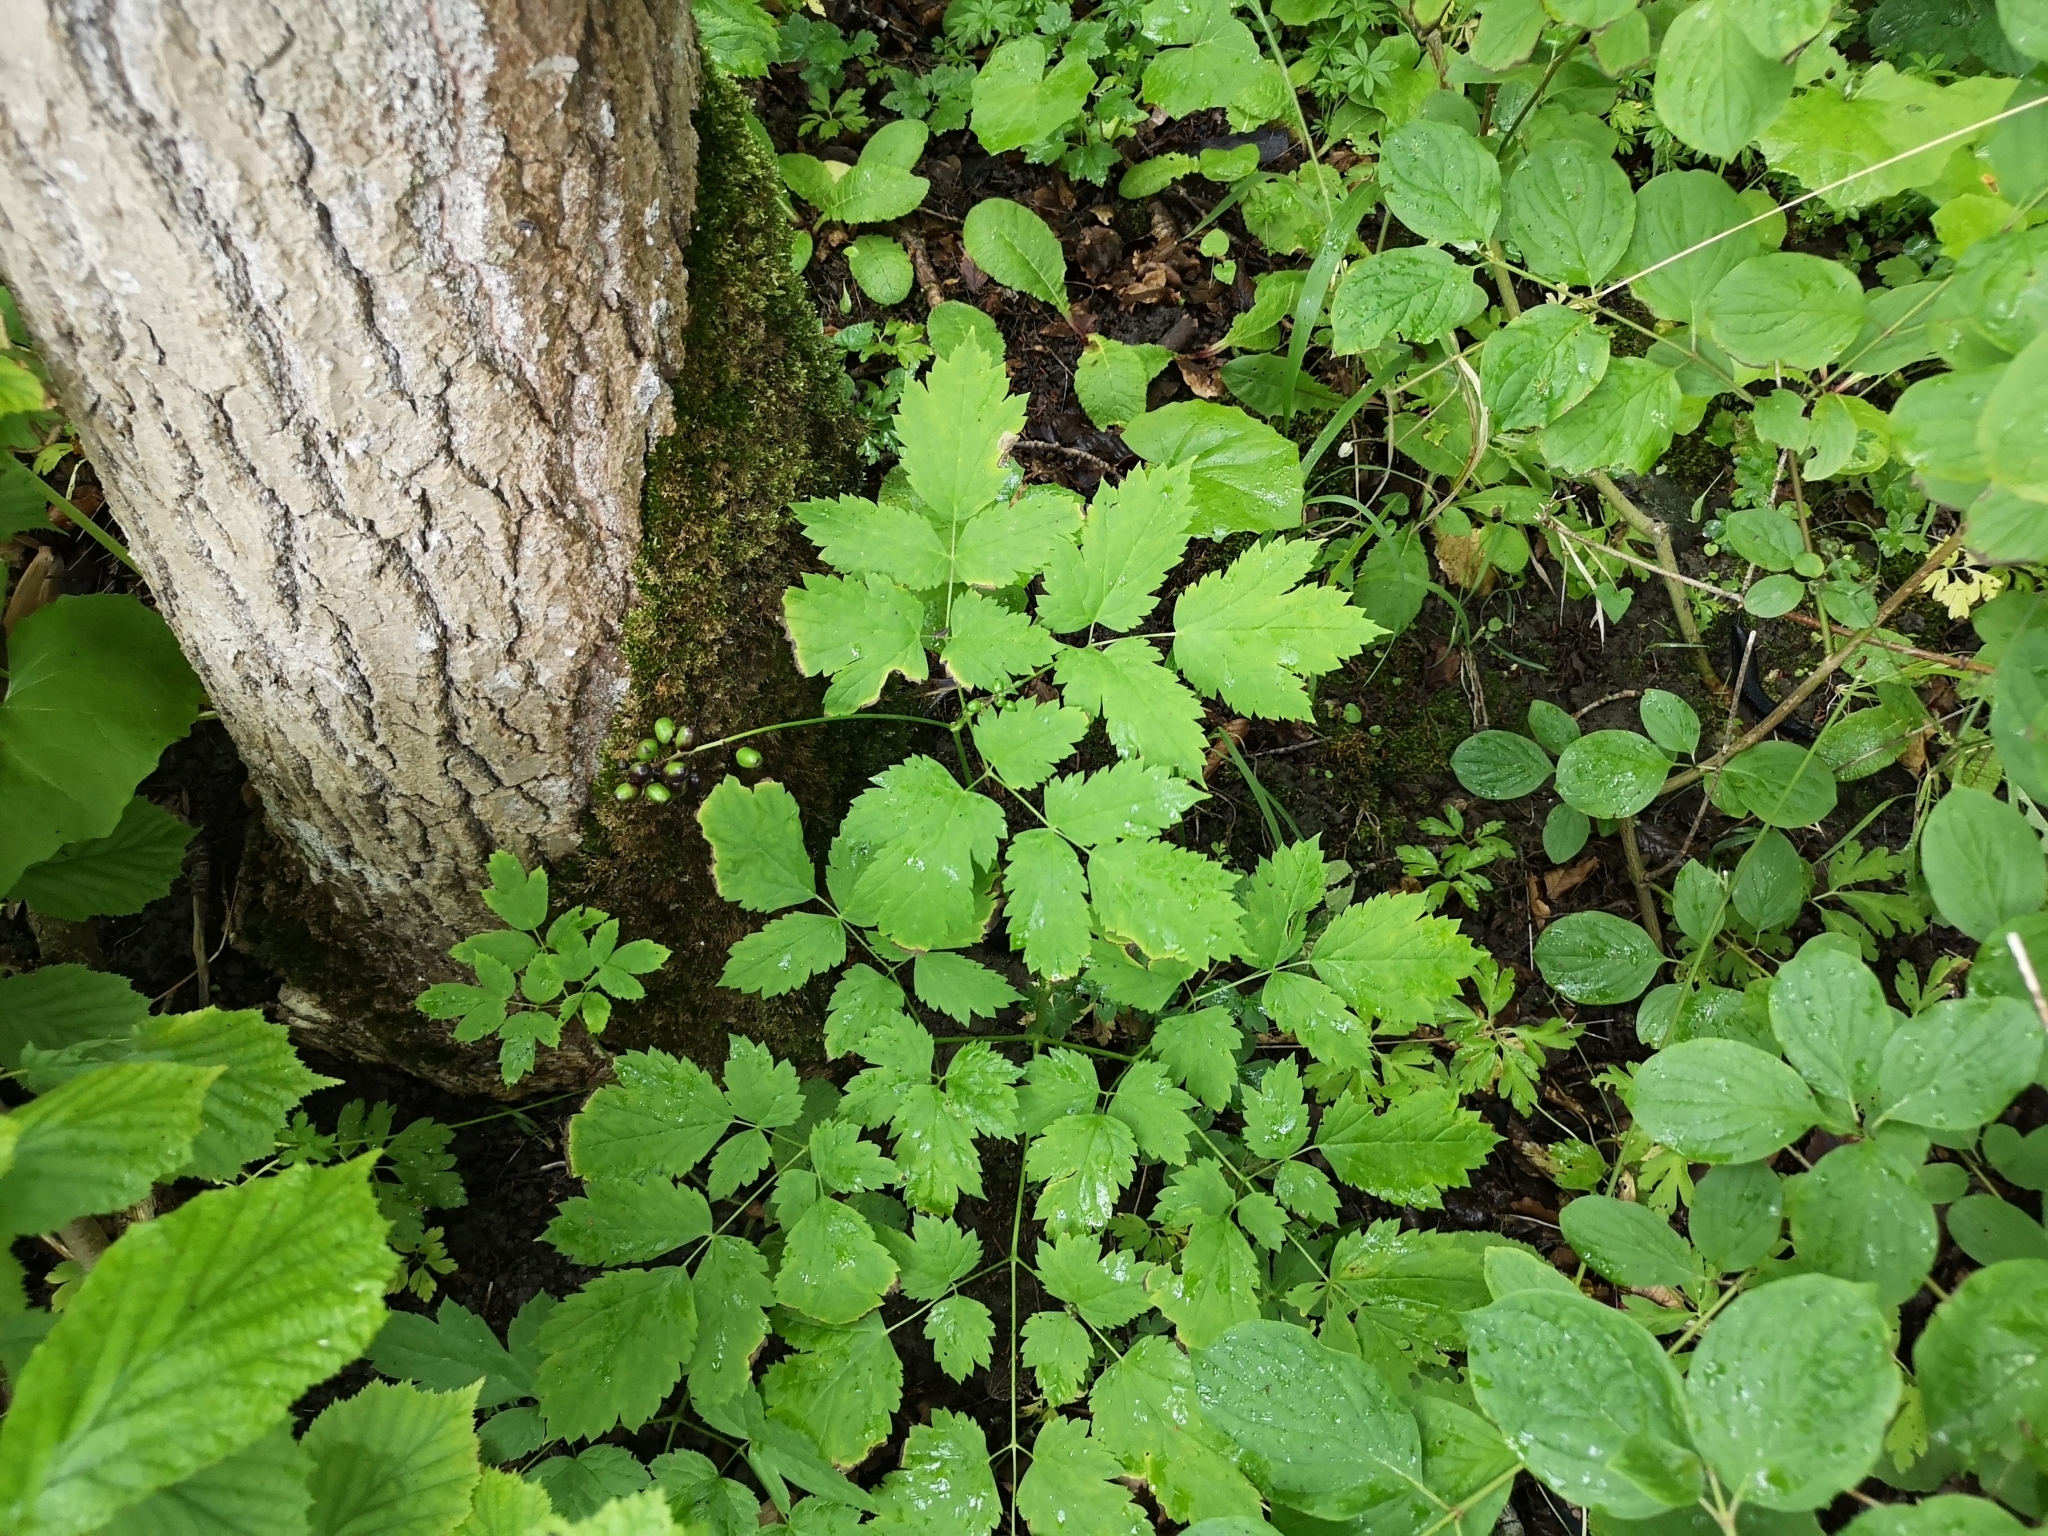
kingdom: Plantae
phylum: Tracheophyta
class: Magnoliopsida
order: Ranunculales
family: Ranunculaceae
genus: Actaea
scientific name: Actaea spicata
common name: Baneberry
